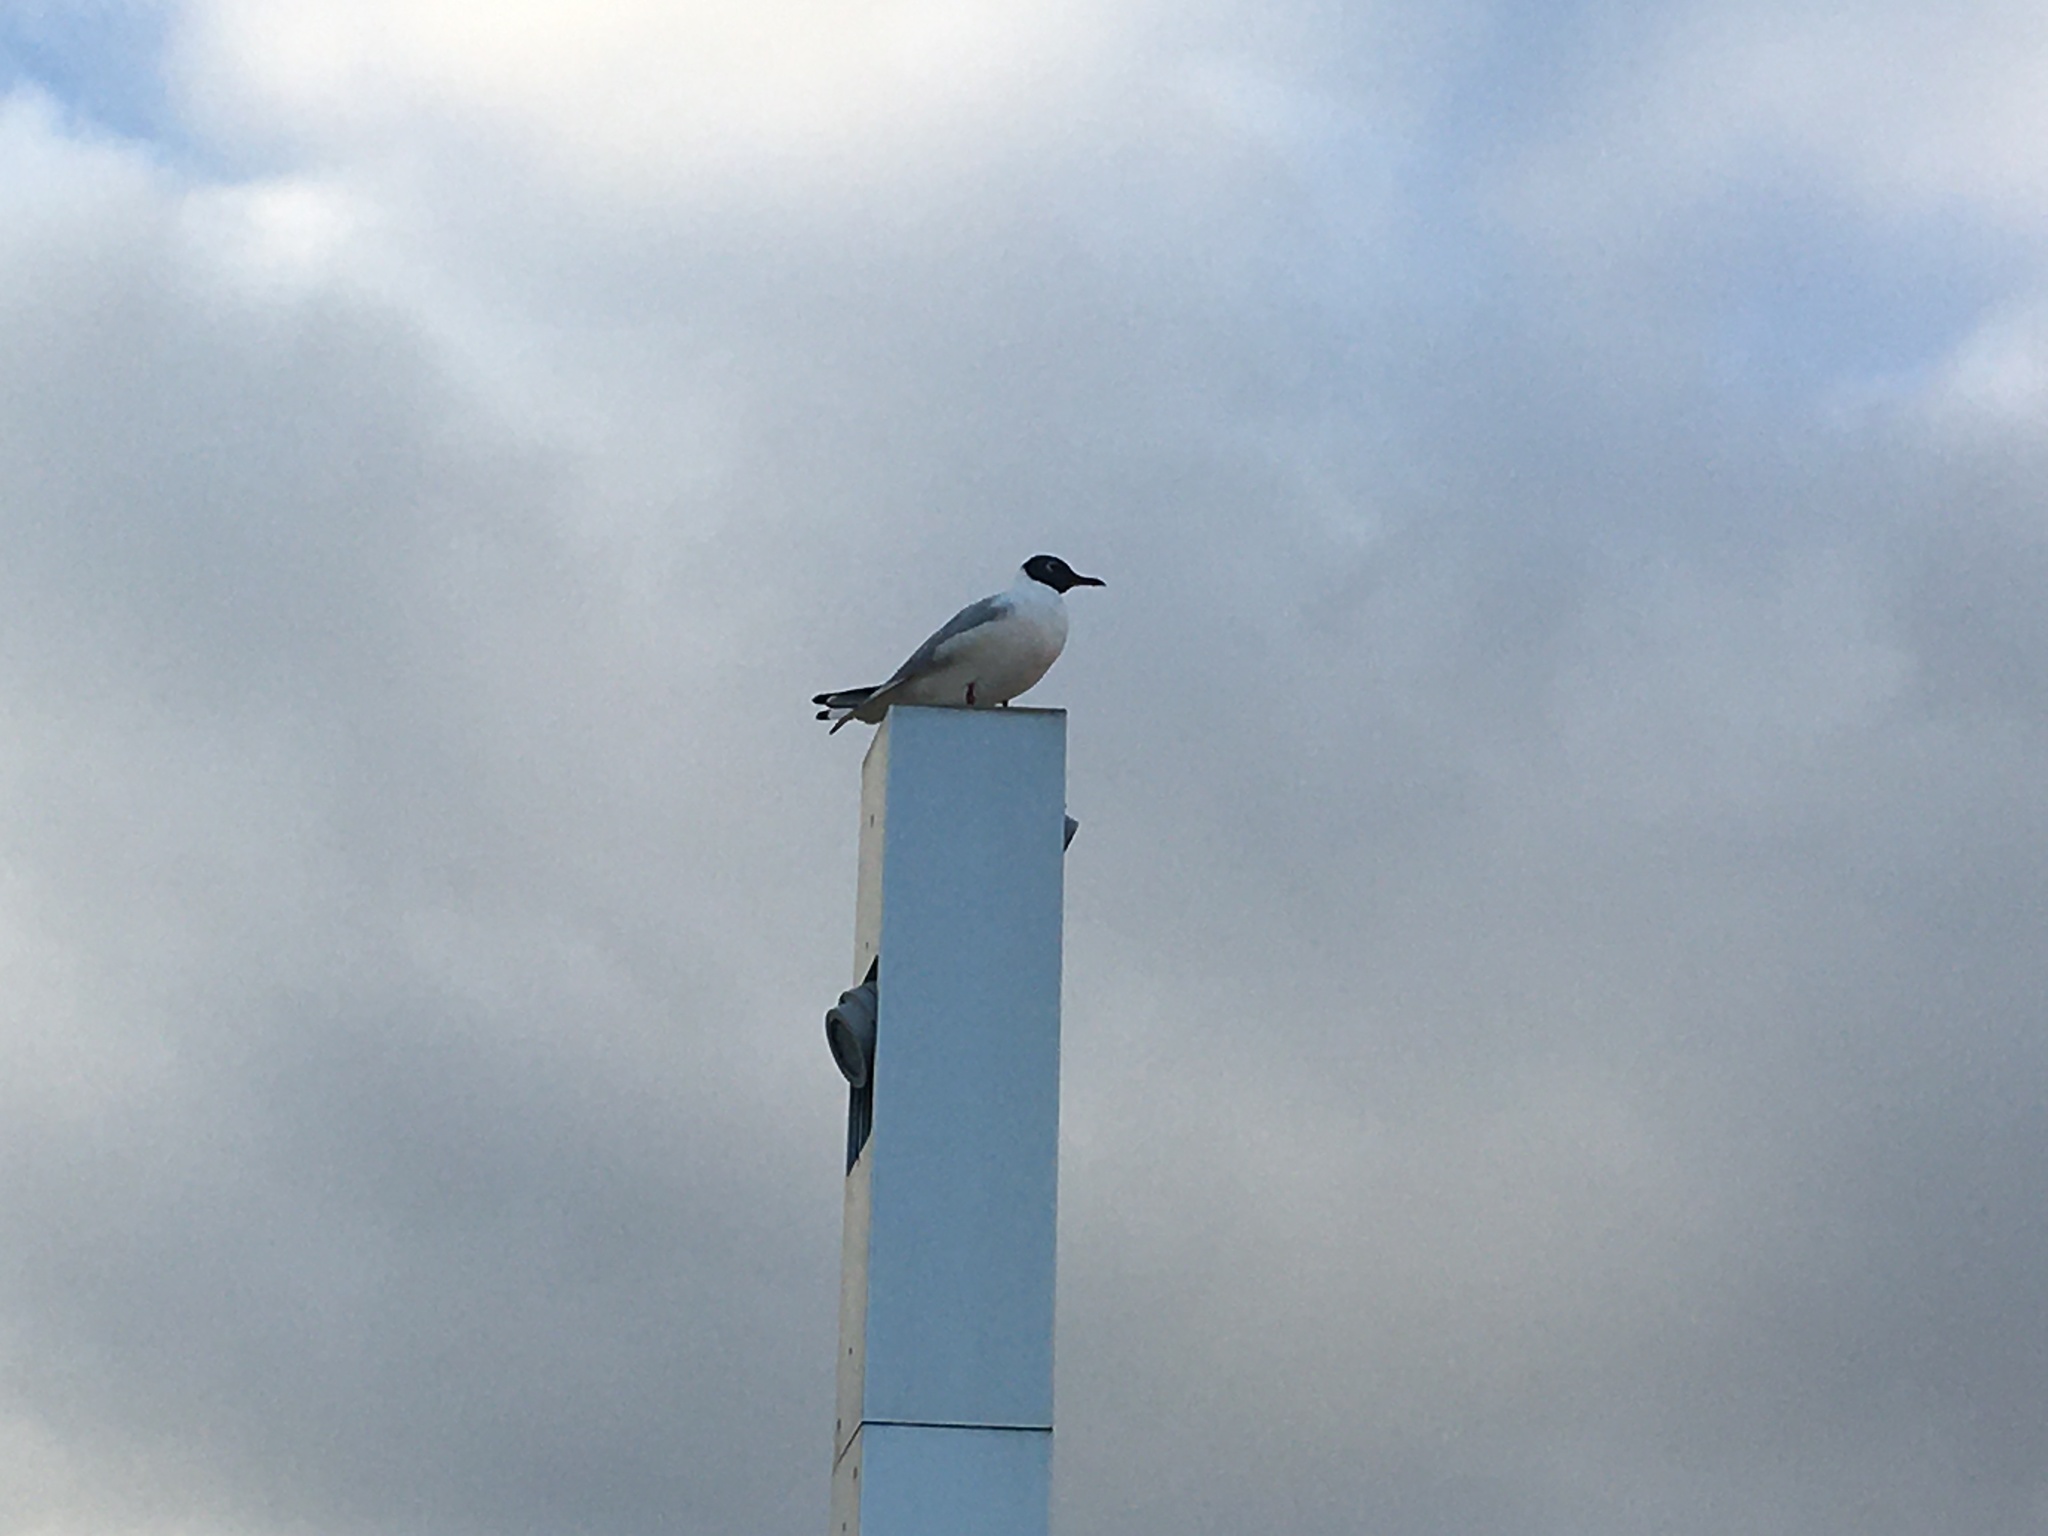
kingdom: Animalia
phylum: Chordata
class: Aves
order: Charadriiformes
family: Laridae
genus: Chroicocephalus
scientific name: Chroicocephalus ridibundus
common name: Black-headed gull
